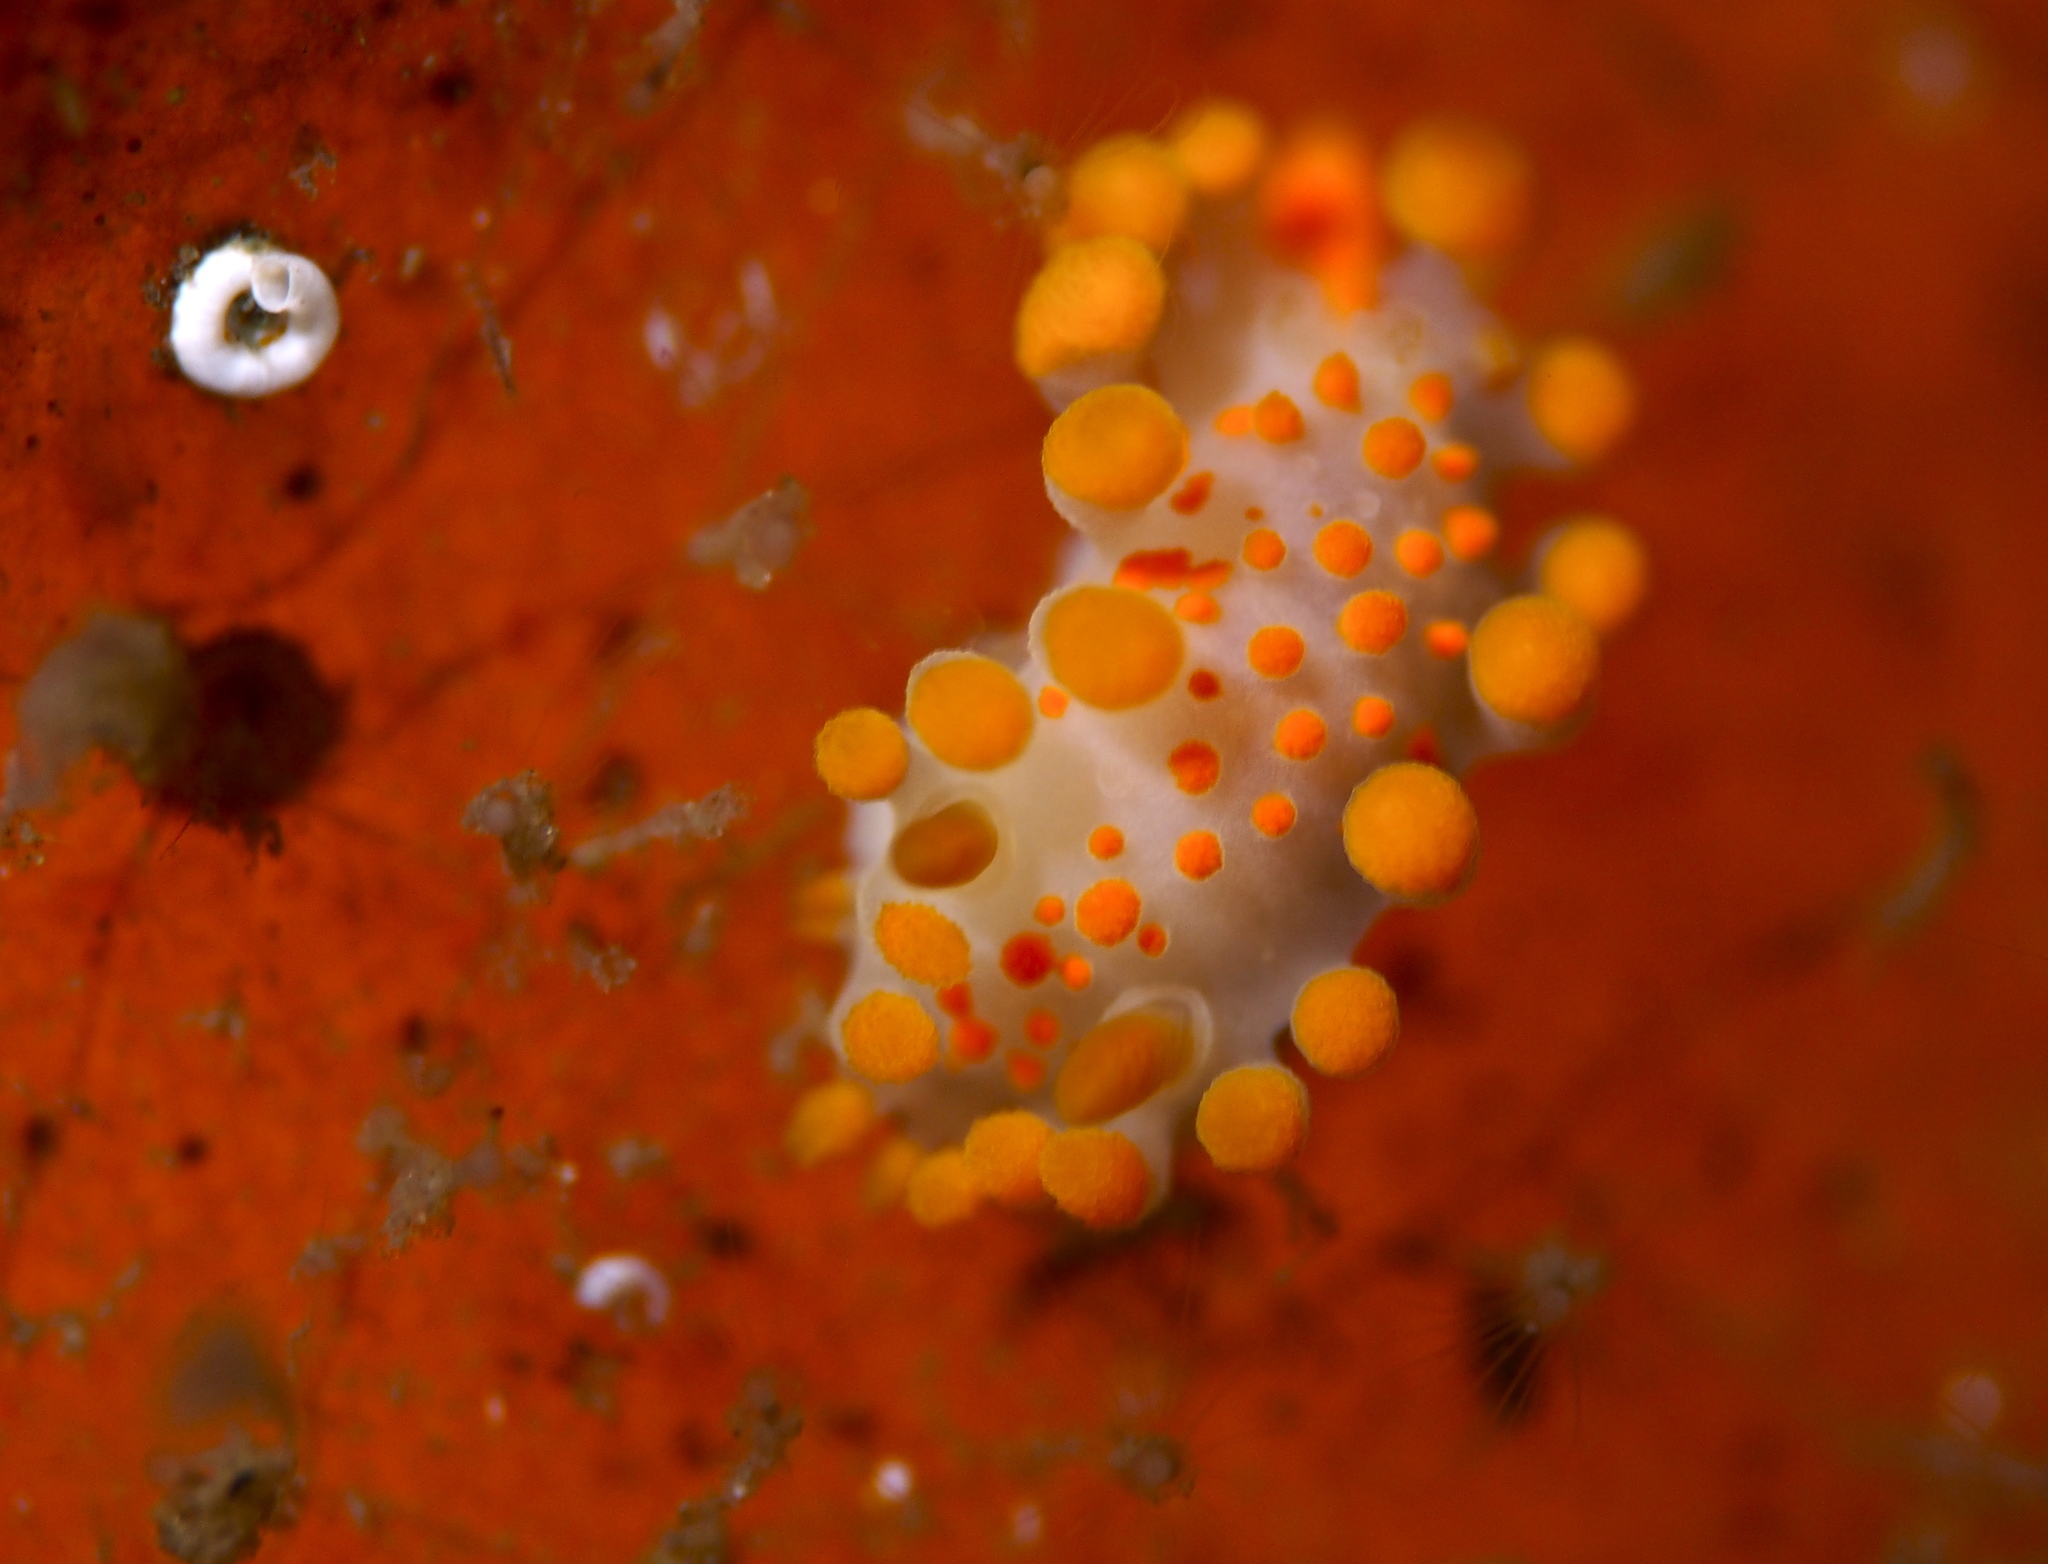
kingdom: Animalia
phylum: Mollusca
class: Gastropoda
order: Nudibranchia
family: Polyceridae
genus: Limacia
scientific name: Limacia clavigera
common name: Orange-clubbed sea slug
